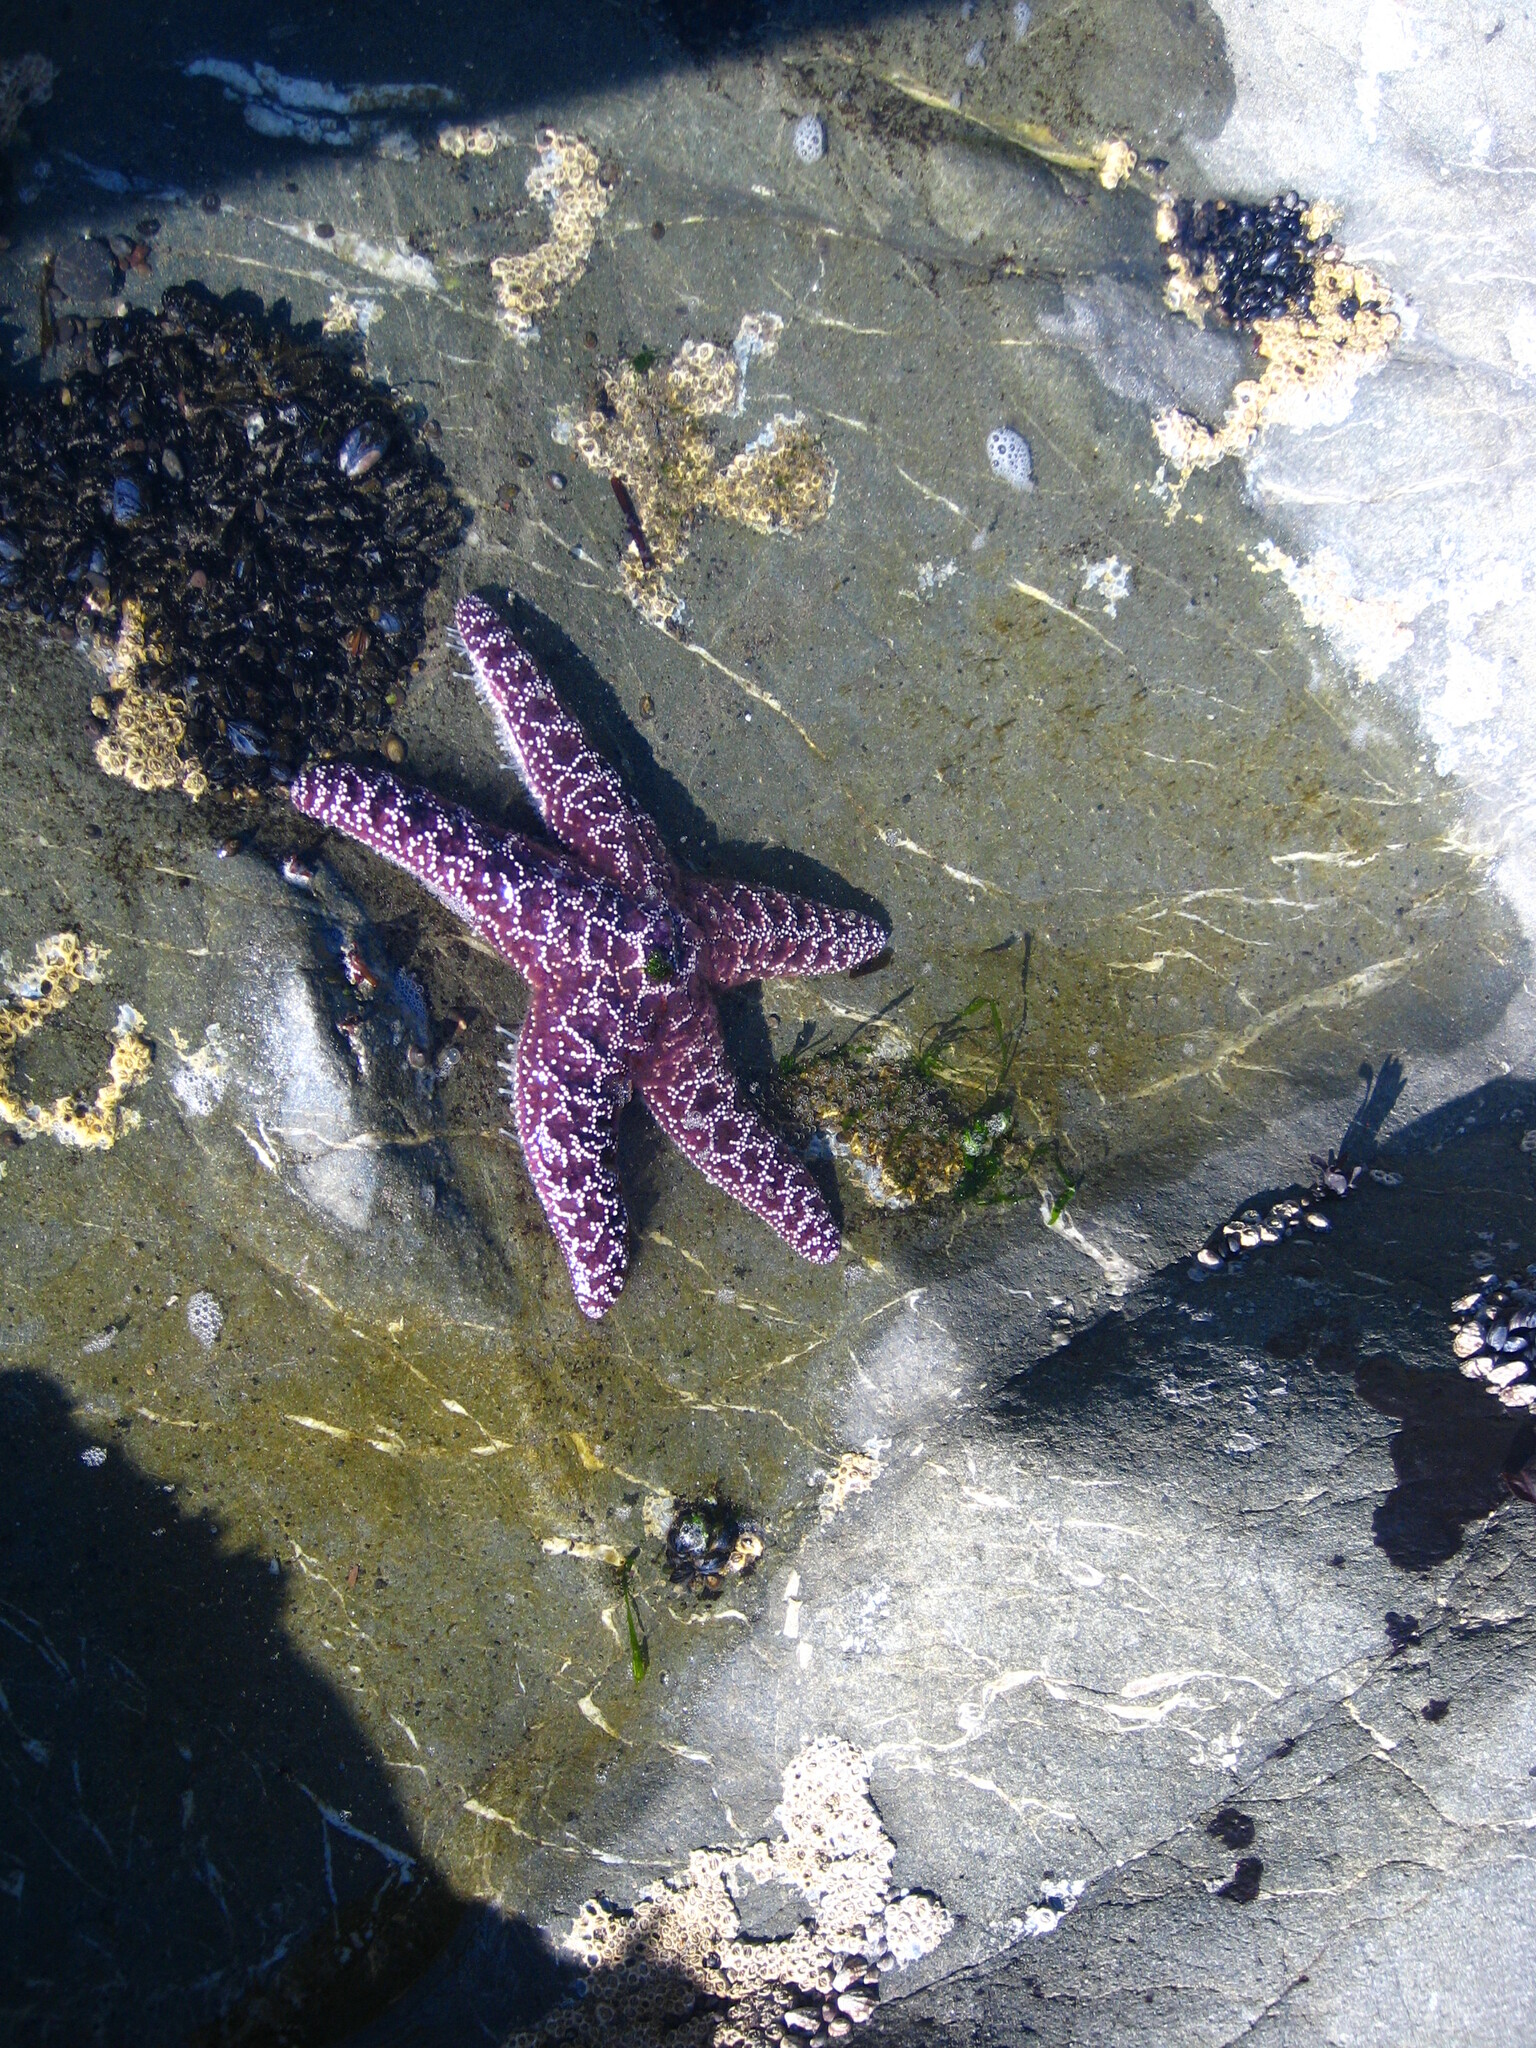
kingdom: Animalia
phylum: Echinodermata
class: Asteroidea
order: Forcipulatida
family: Asteriidae
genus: Pisaster
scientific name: Pisaster ochraceus
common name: Ochre stars
